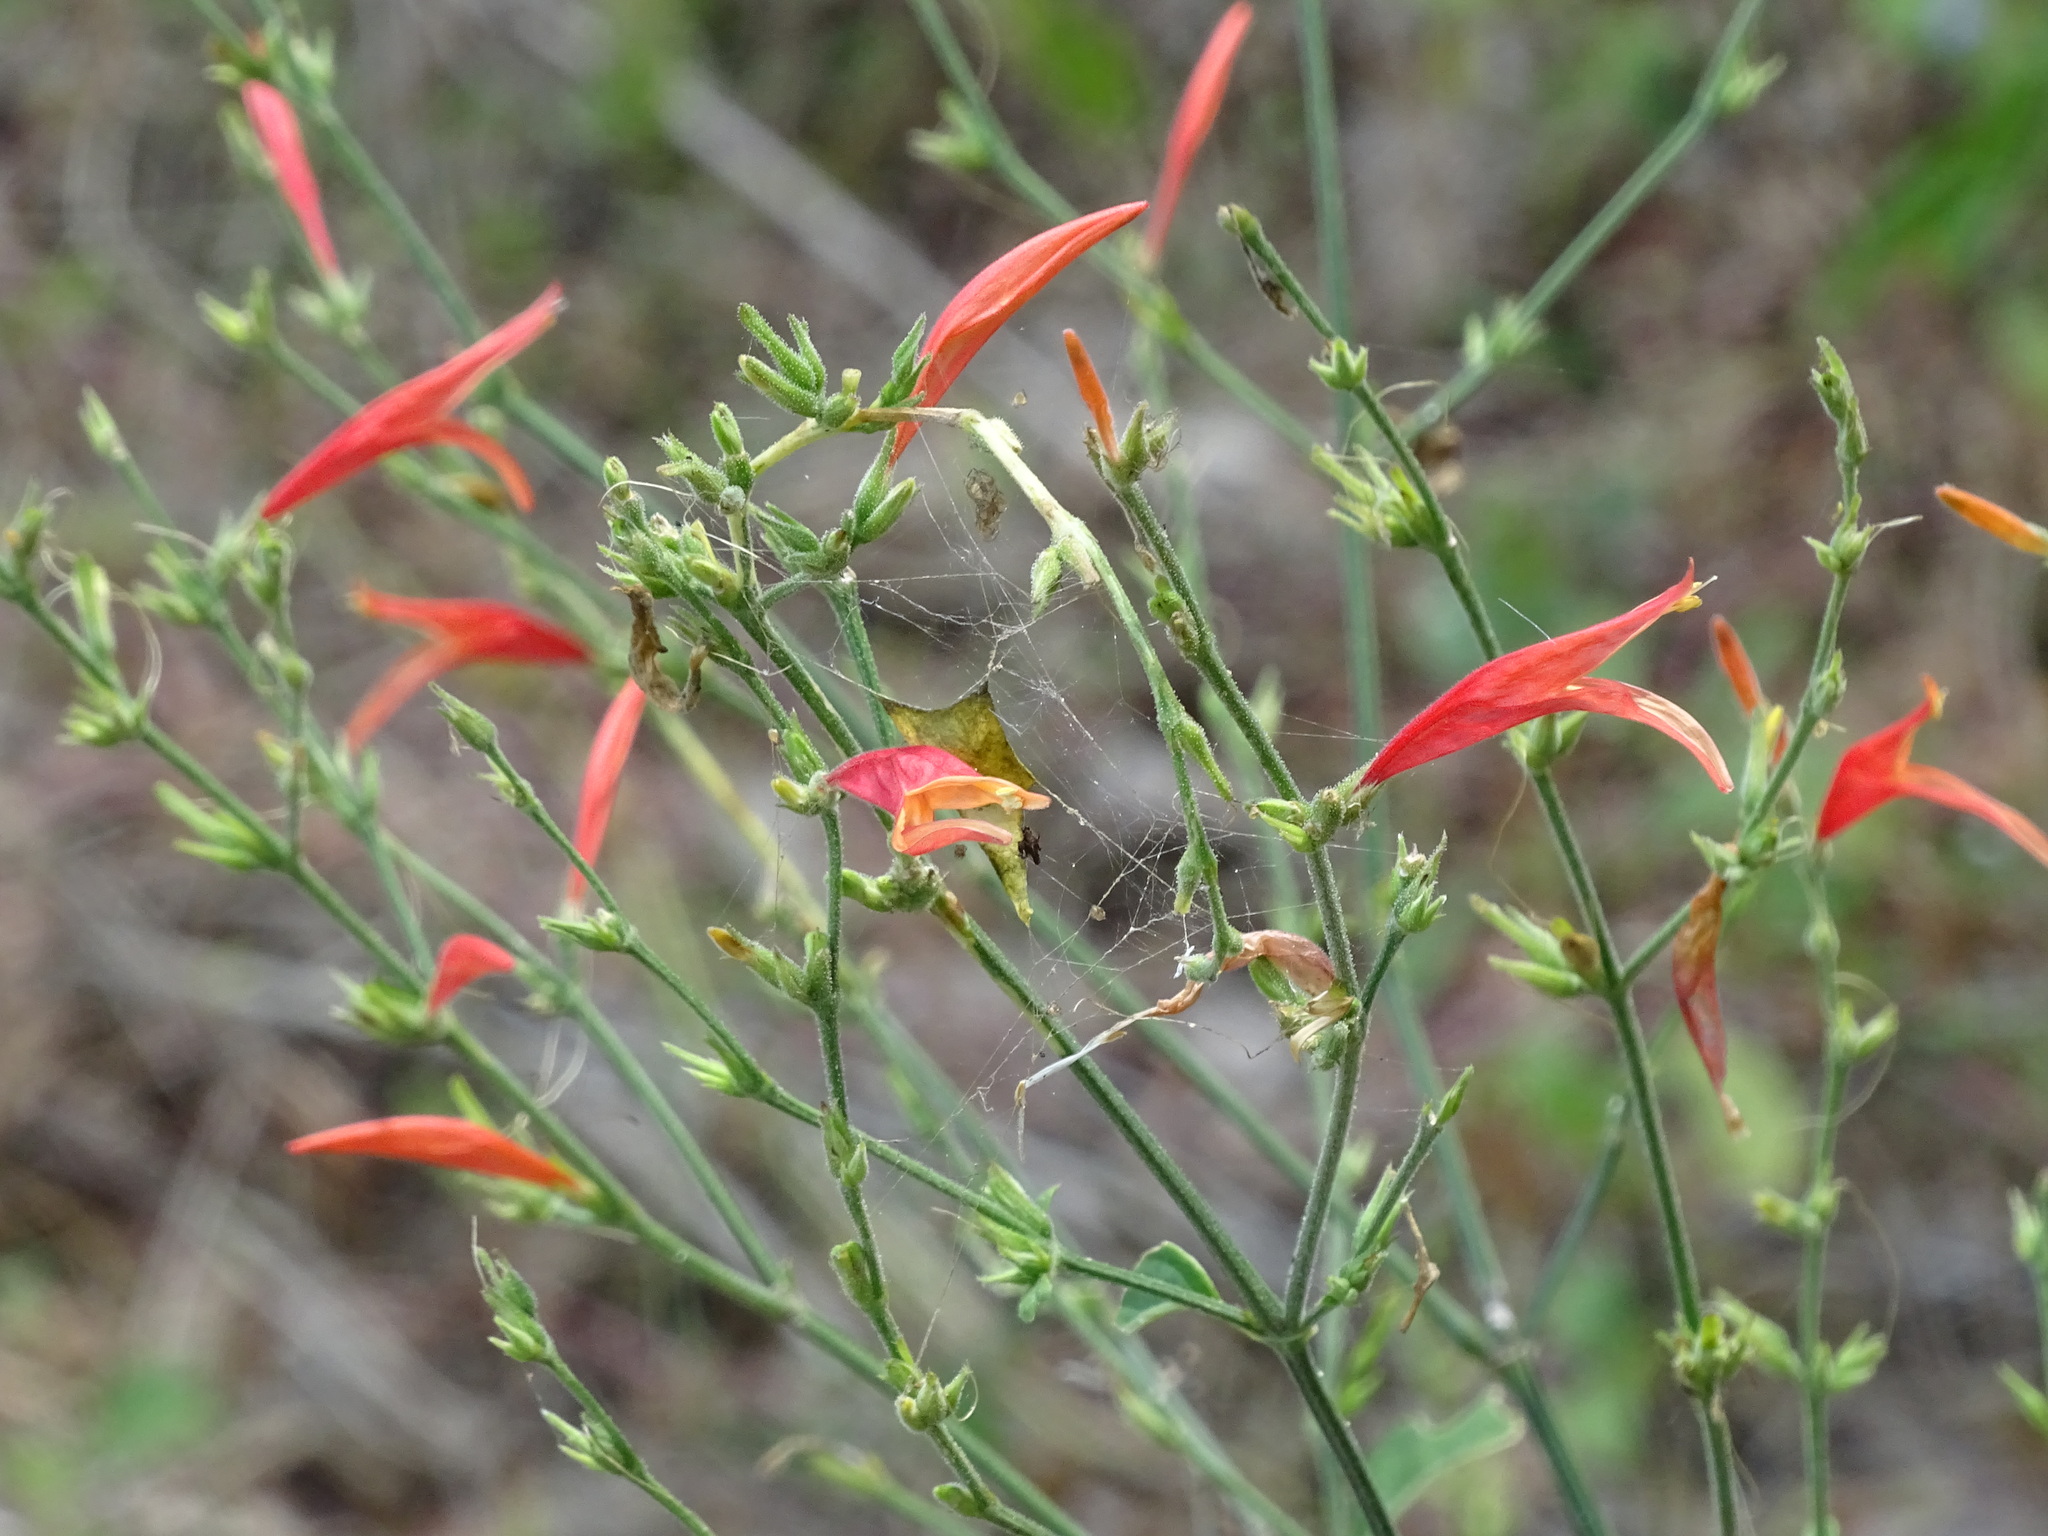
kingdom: Plantae
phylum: Tracheophyta
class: Magnoliopsida
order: Lamiales
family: Acanthaceae
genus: Dicliptera
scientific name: Dicliptera sexangularis
